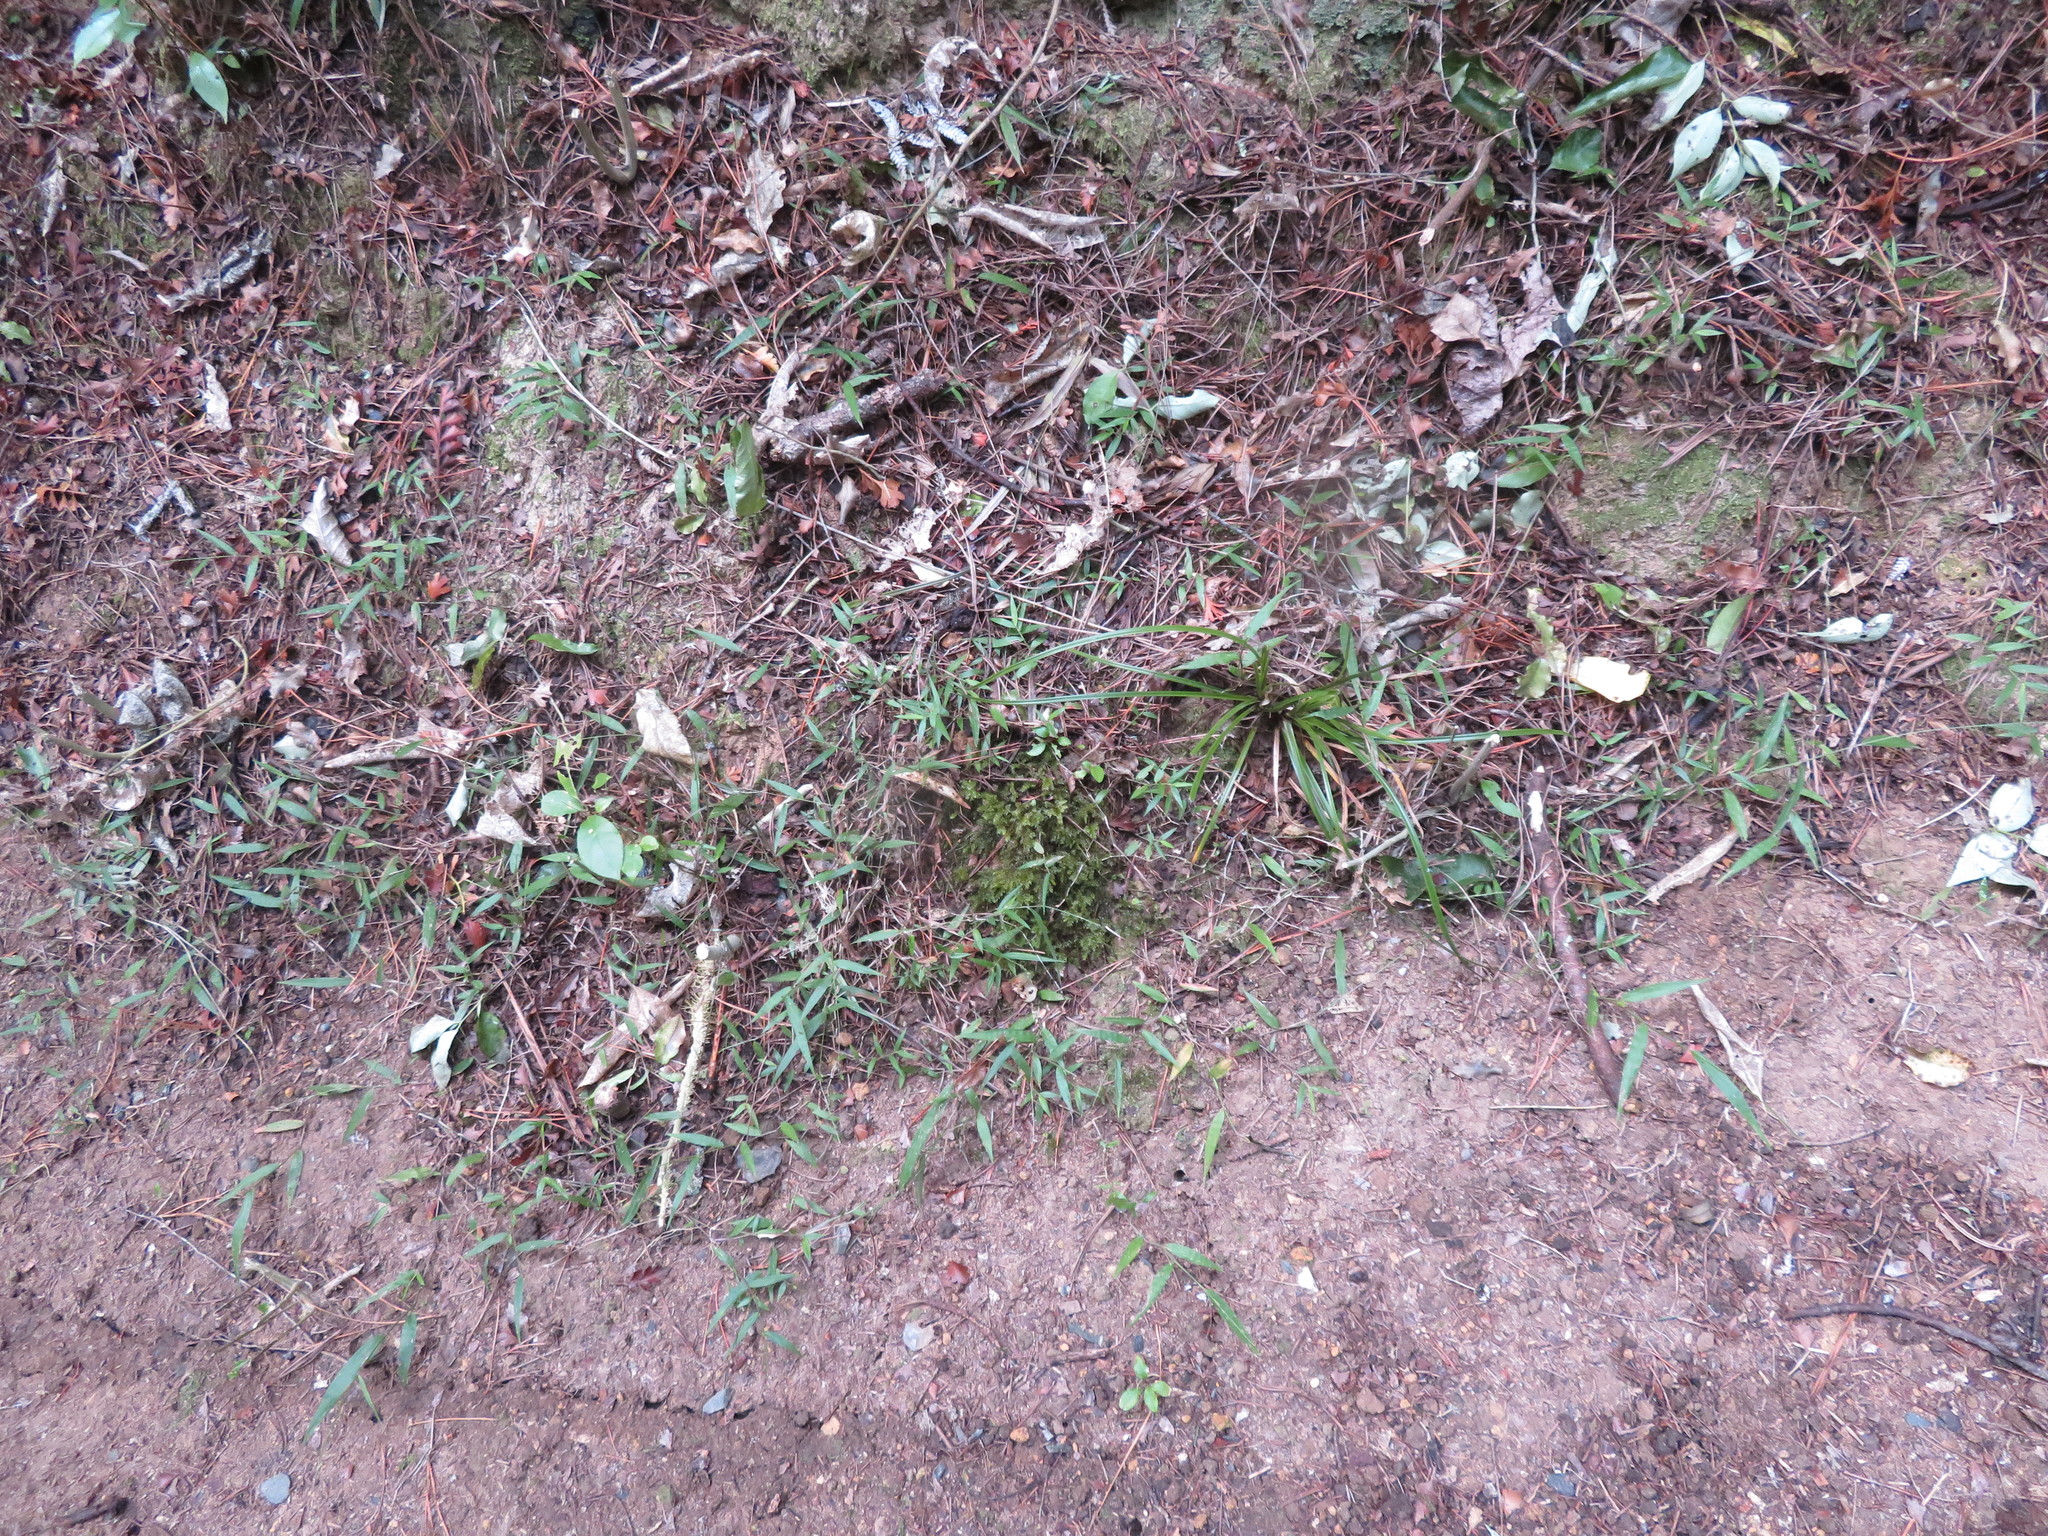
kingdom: Plantae
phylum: Tracheophyta
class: Liliopsida
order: Poales
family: Poaceae
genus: Oplismenus
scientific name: Oplismenus hirtellus
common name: Basketgrass
